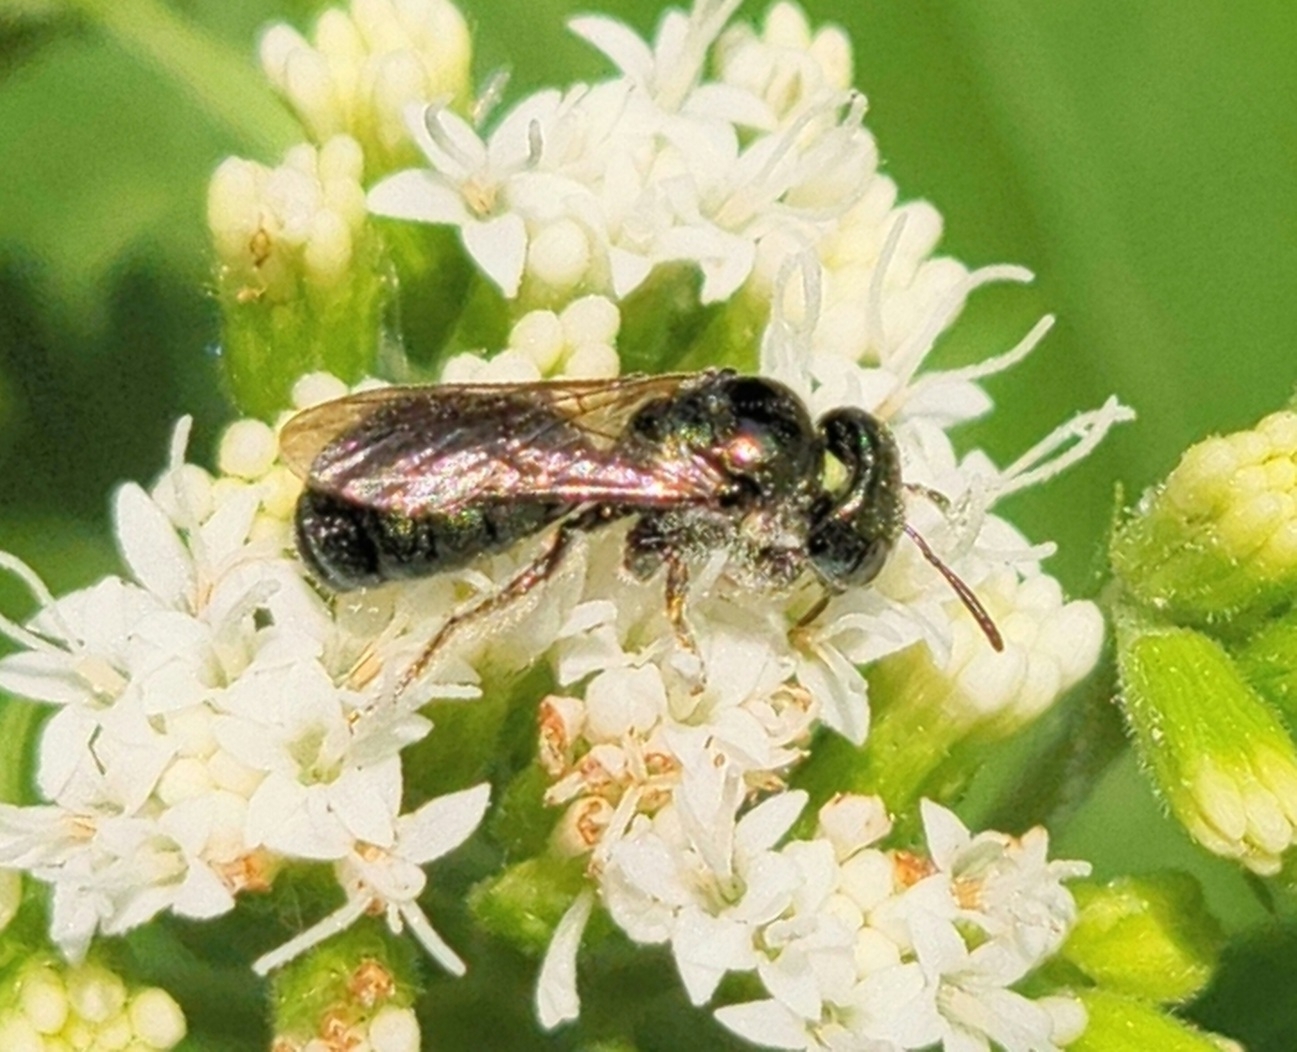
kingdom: Animalia
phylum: Arthropoda
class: Insecta
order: Hymenoptera
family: Apidae
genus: Zadontomerus
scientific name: Zadontomerus
